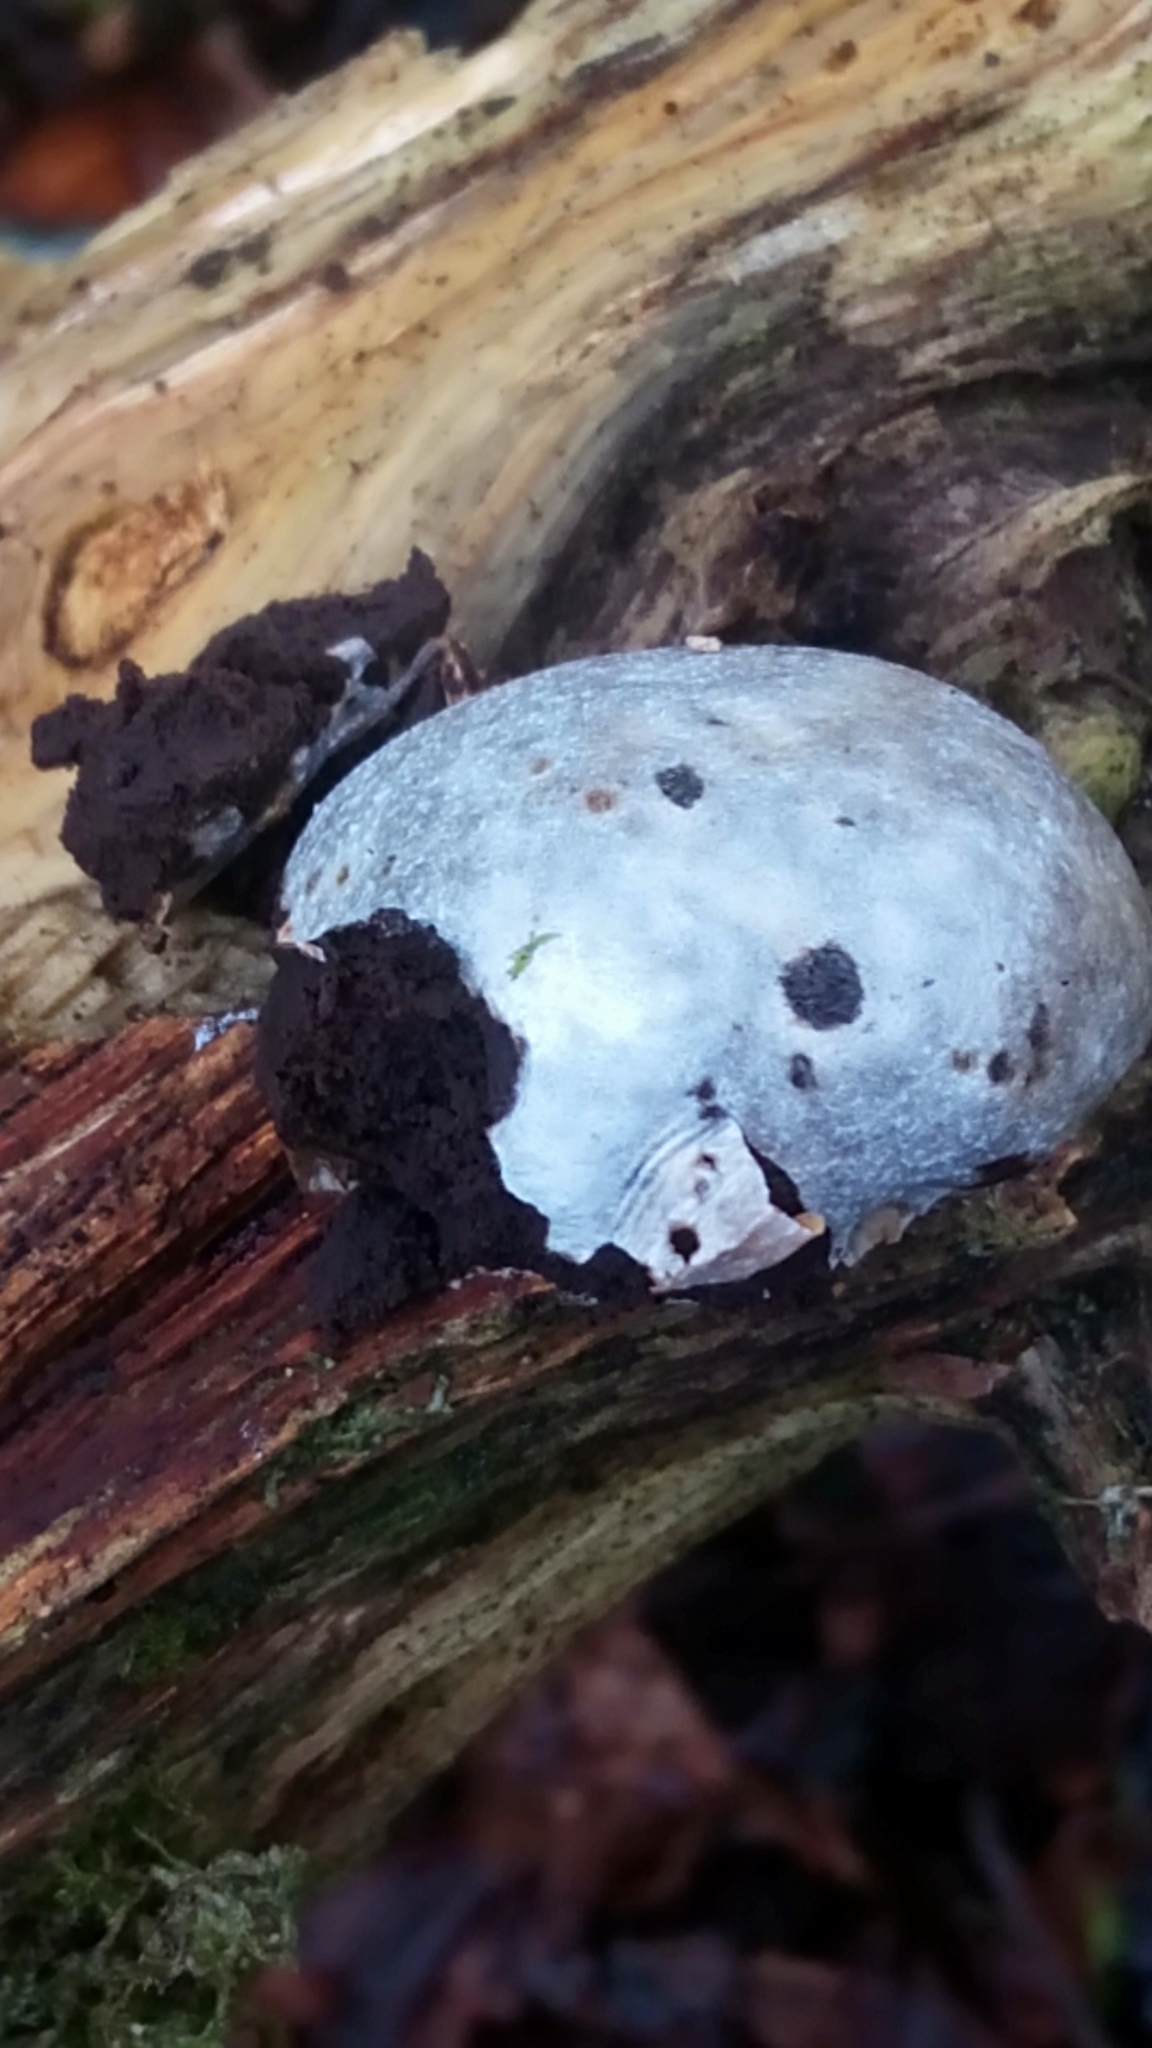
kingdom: Protozoa
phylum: Mycetozoa
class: Myxomycetes
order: Cribrariales
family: Tubiferaceae
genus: Reticularia
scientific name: Reticularia lycoperdon
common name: False puffball
